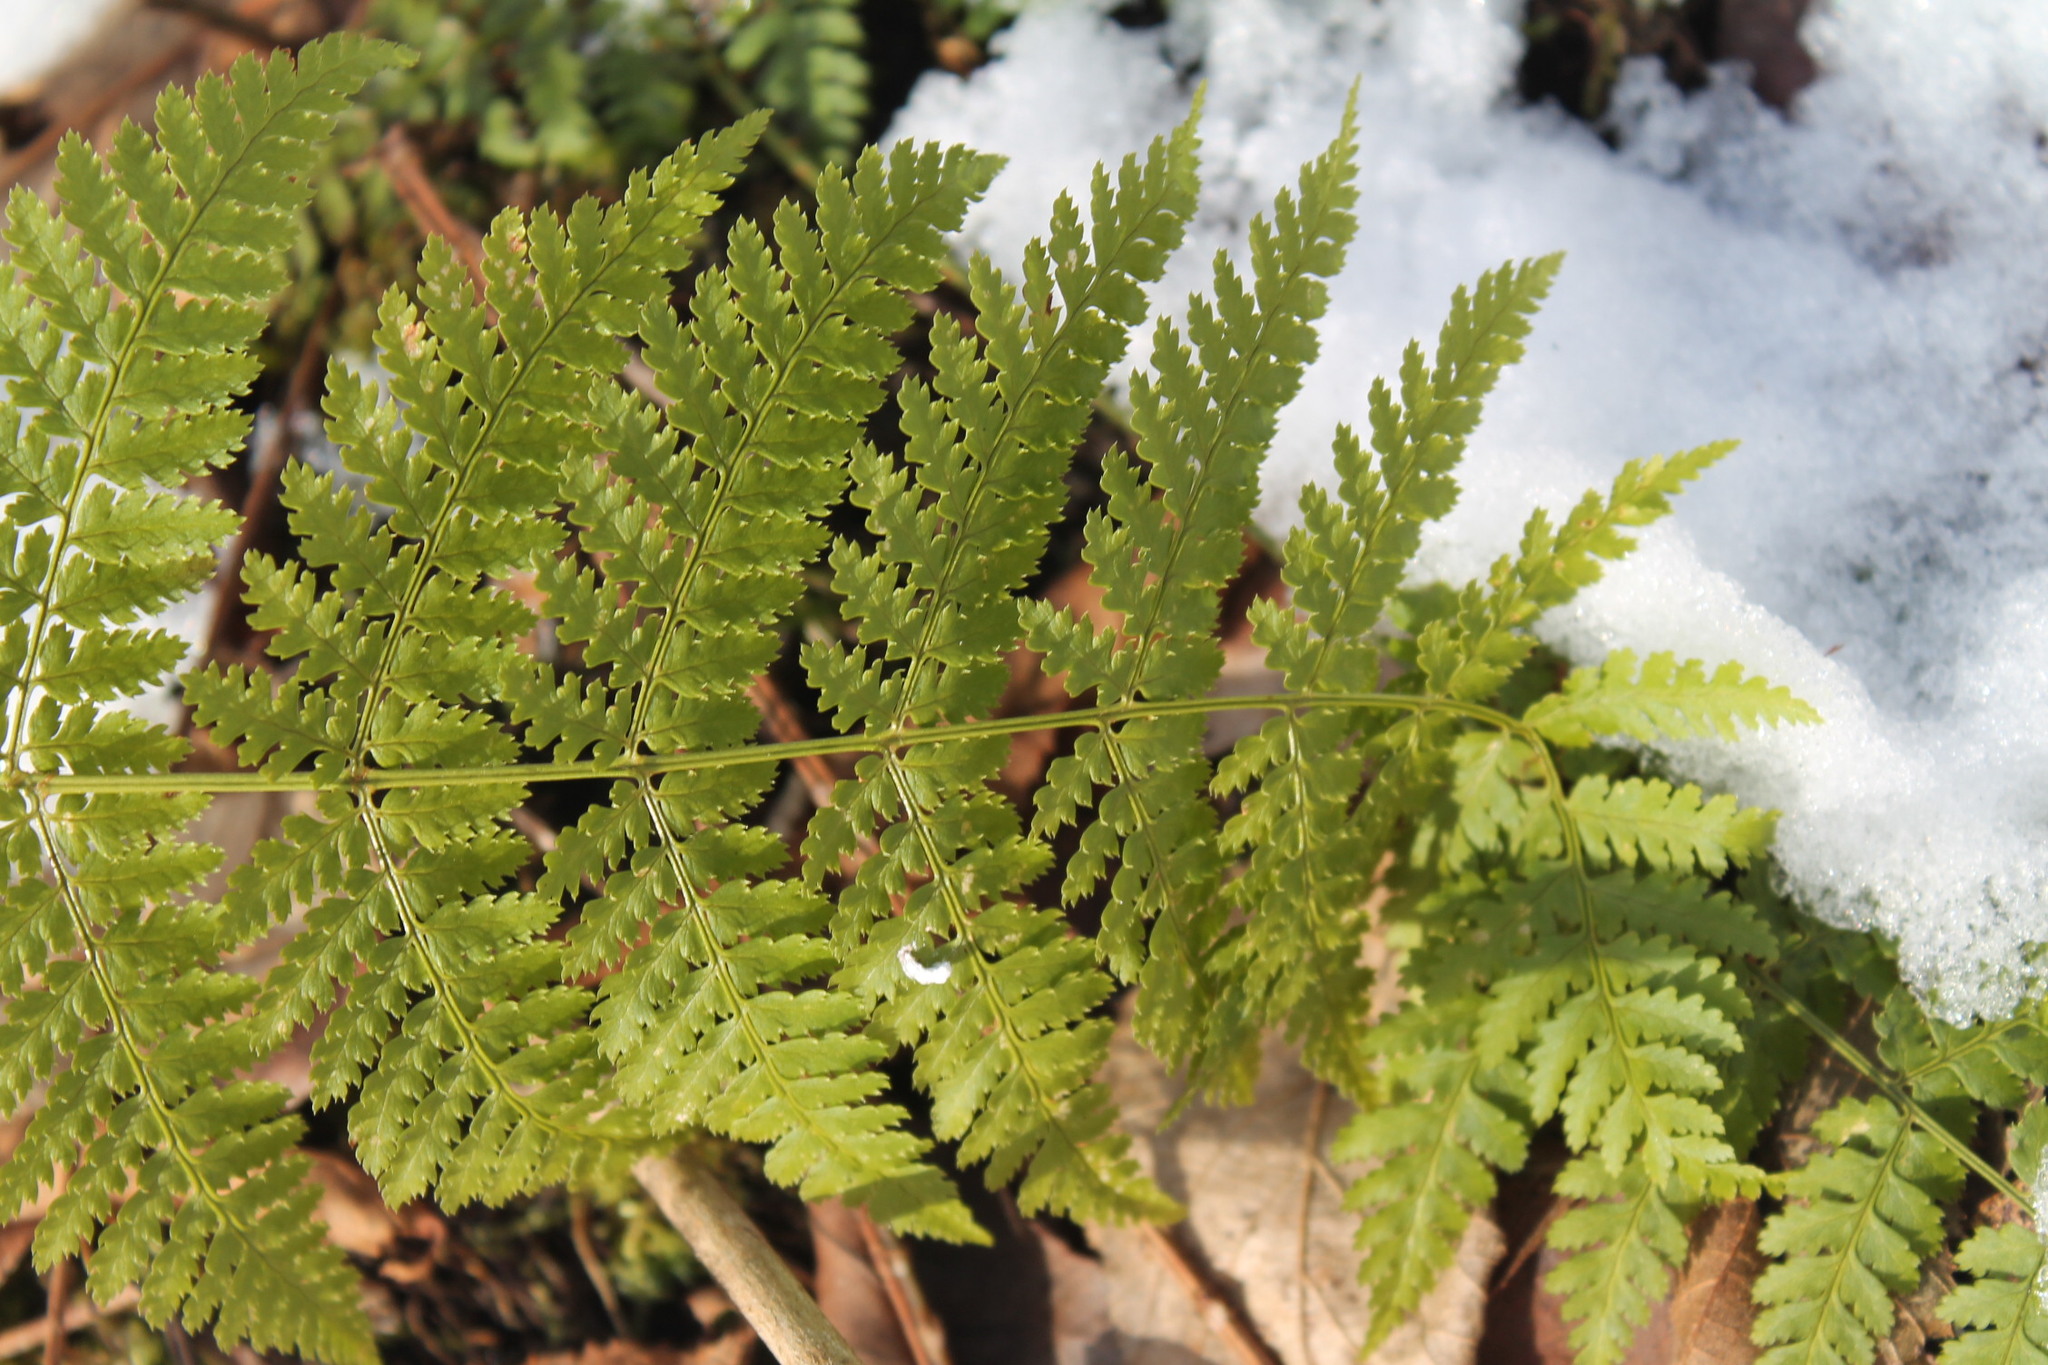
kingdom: Plantae
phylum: Tracheophyta
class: Polypodiopsida
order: Polypodiales
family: Dryopteridaceae
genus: Dryopteris
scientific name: Dryopteris intermedia
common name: Evergreen wood fern
